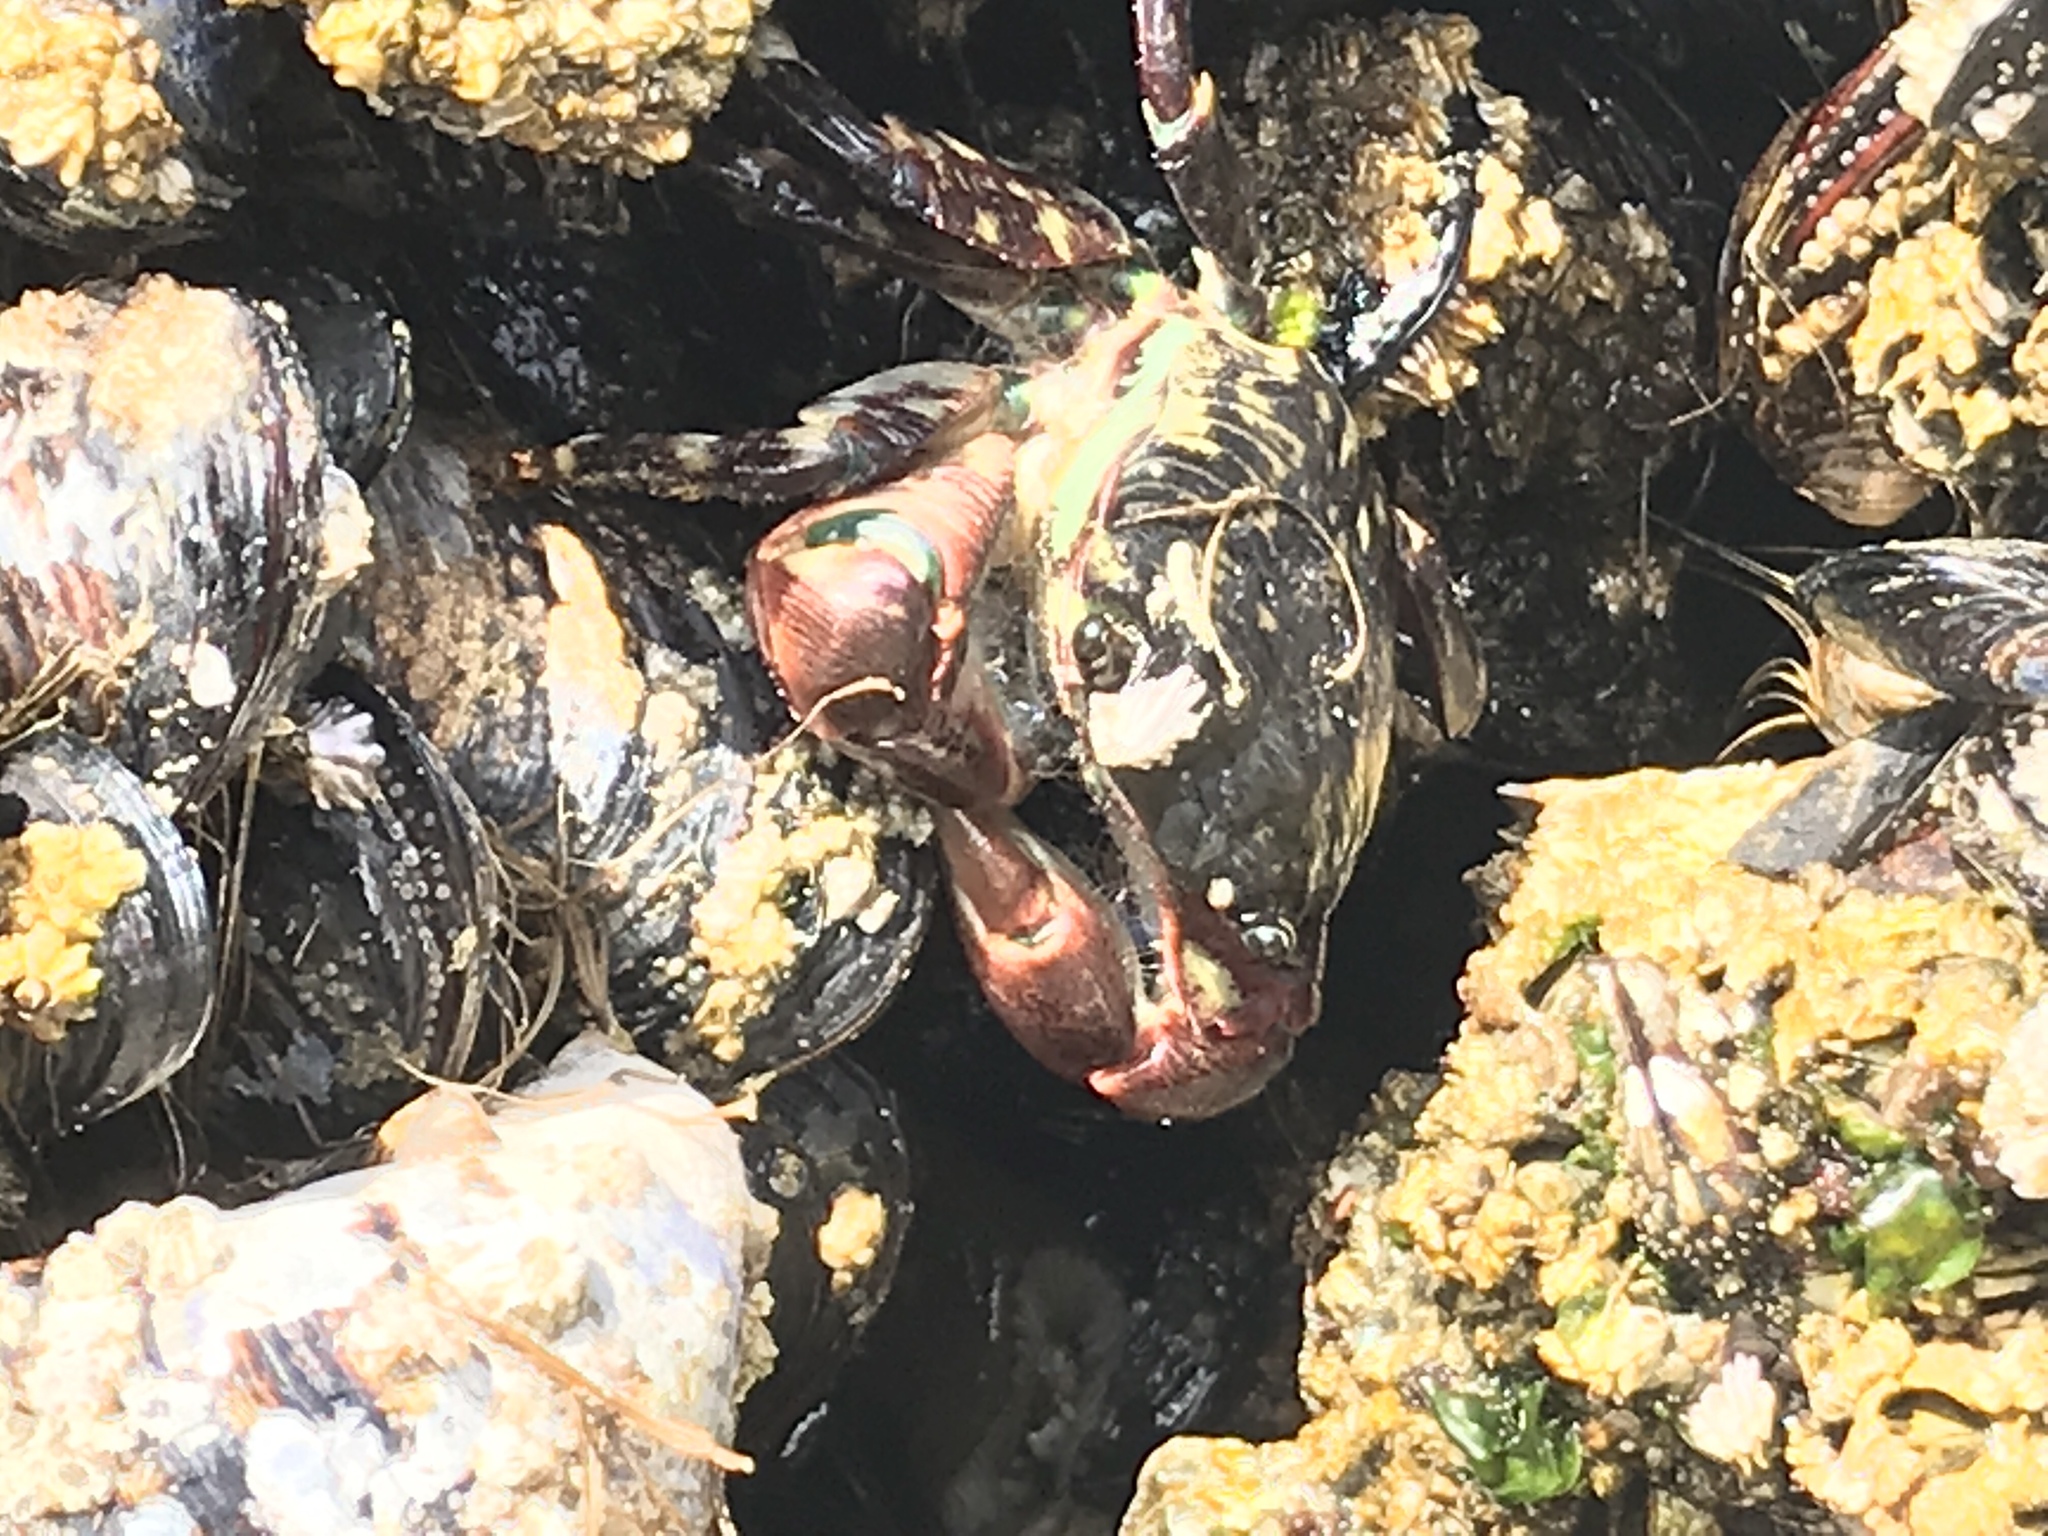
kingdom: Animalia
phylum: Arthropoda
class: Malacostraca
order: Decapoda
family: Grapsidae
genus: Pachygrapsus
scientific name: Pachygrapsus crassipes
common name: Striped shore crab
